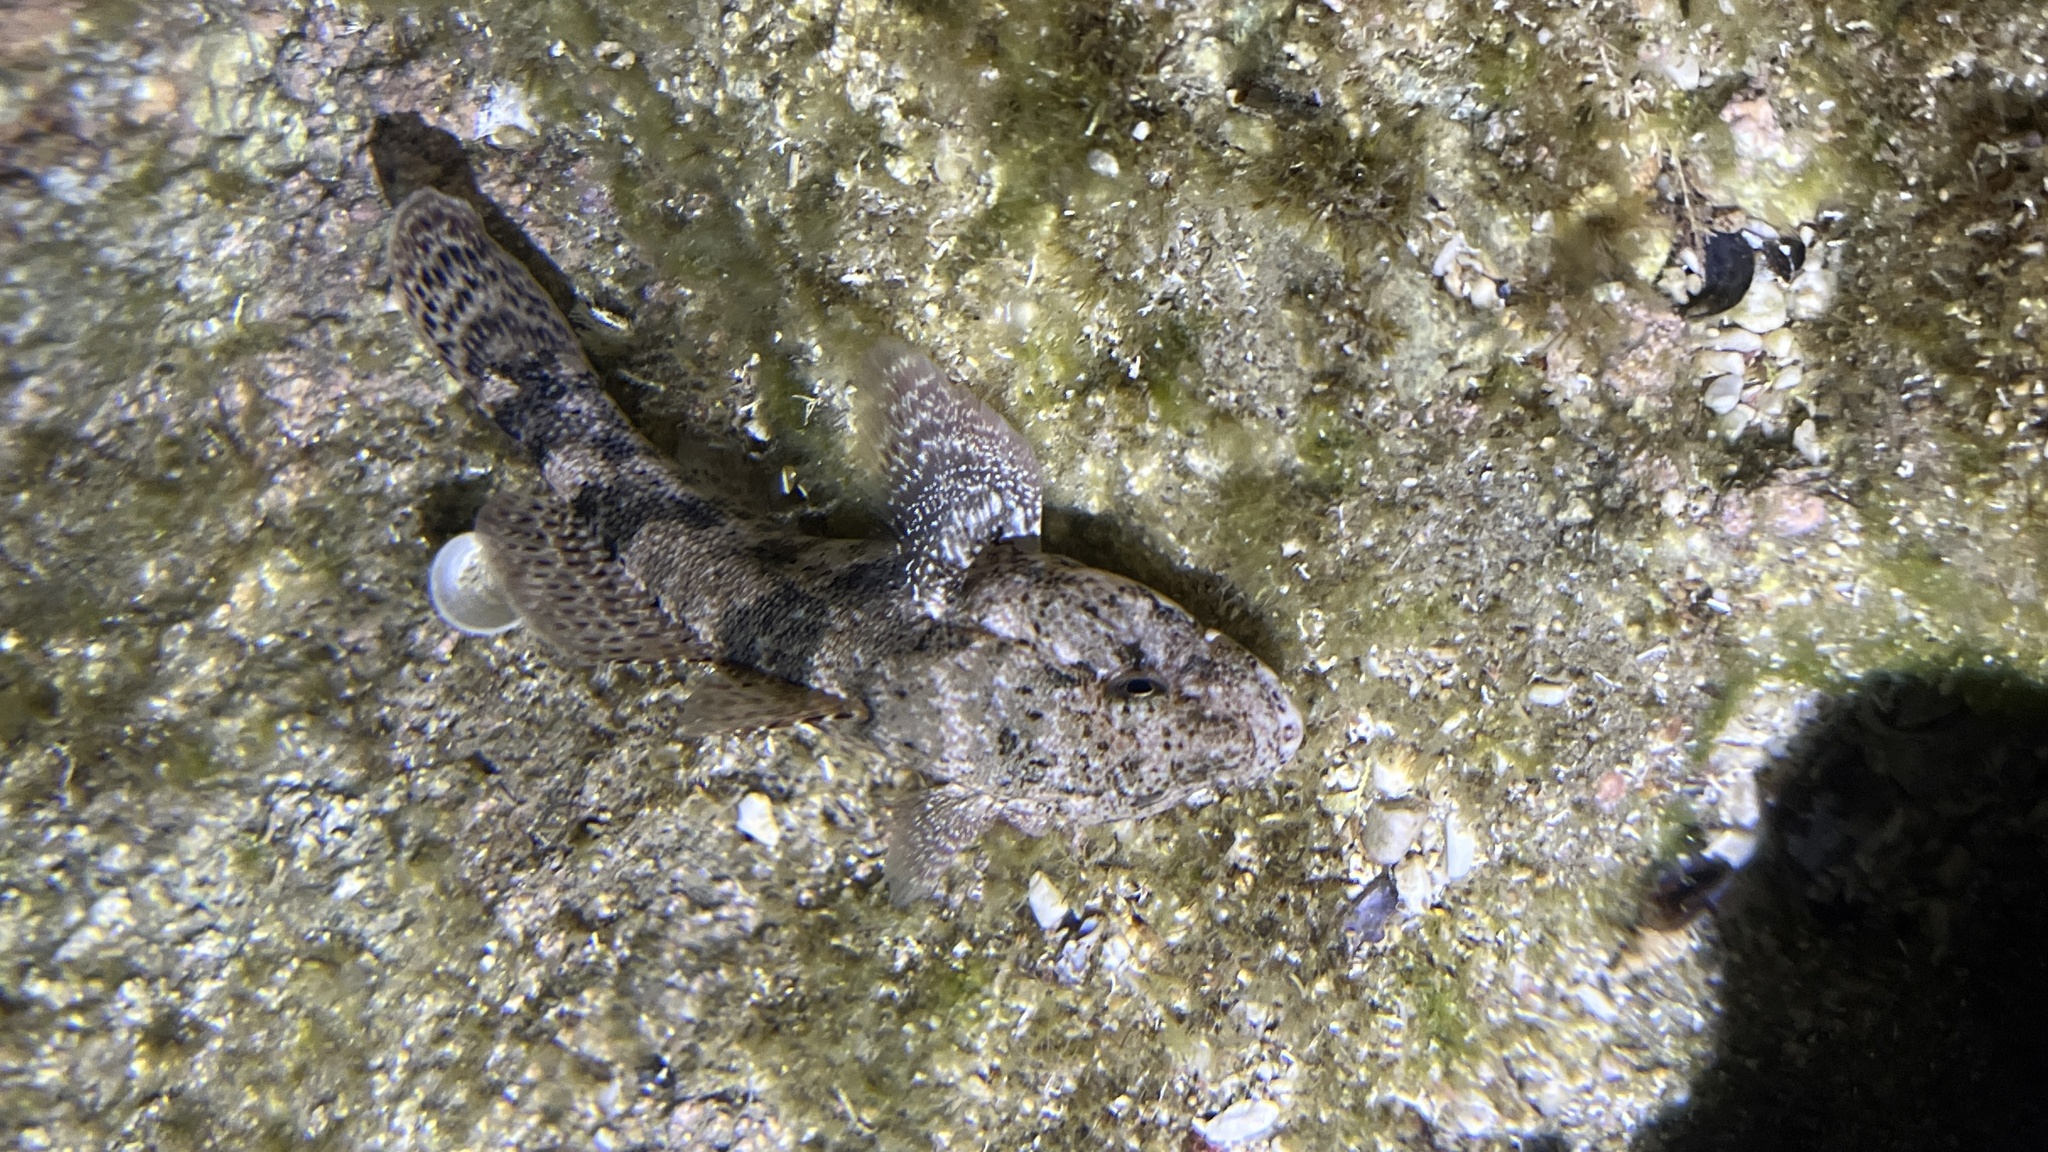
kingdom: Animalia
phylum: Chordata
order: Perciformes
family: Gobiidae
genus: Gobius
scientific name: Gobius cobitis
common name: Giant goby
